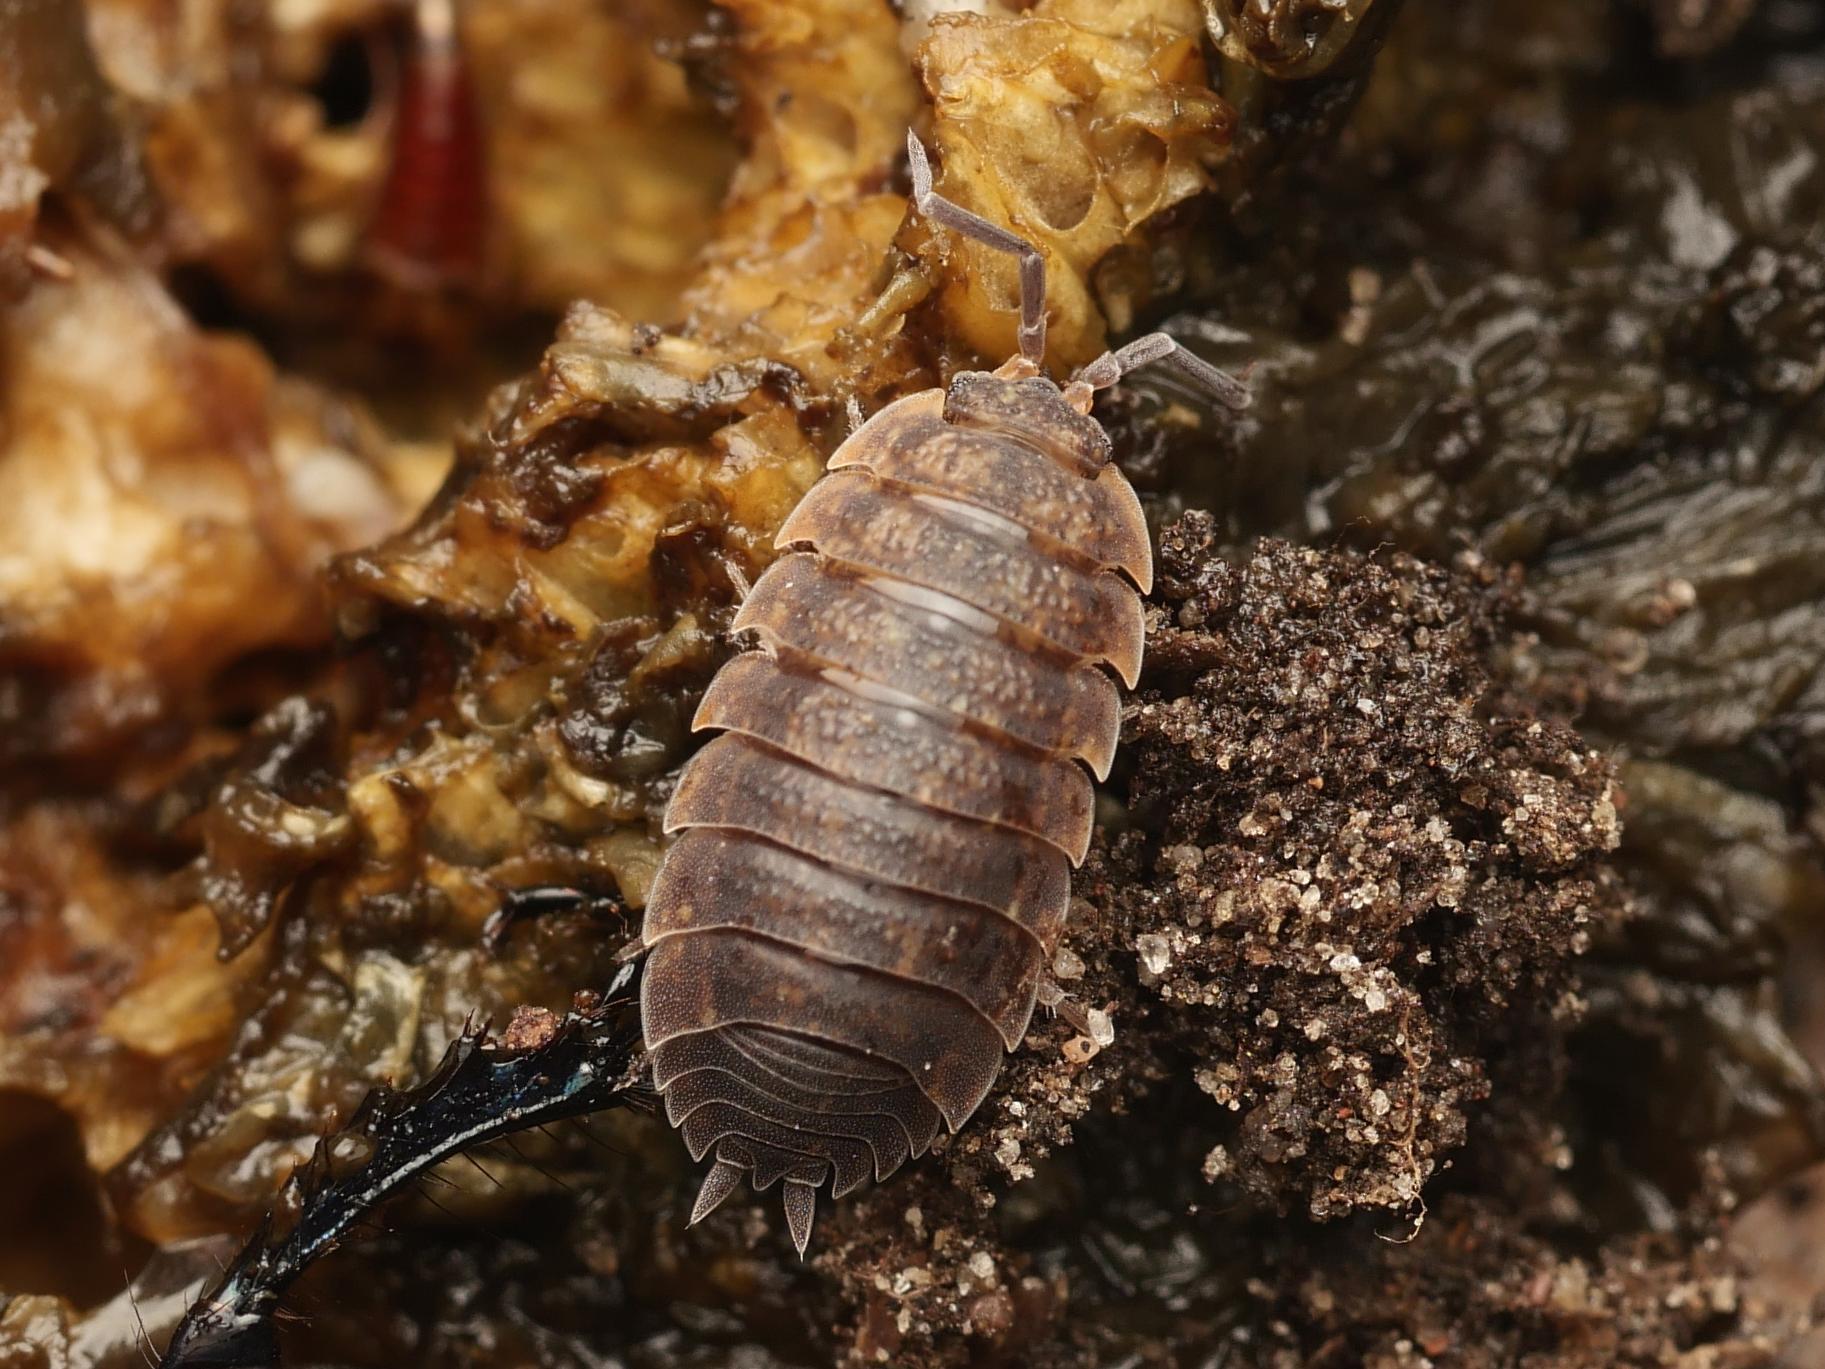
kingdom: Animalia
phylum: Arthropoda
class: Malacostraca
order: Isopoda
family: Porcellionidae
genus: Porcellio
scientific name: Porcellio scaber
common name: Common rough woodlouse
